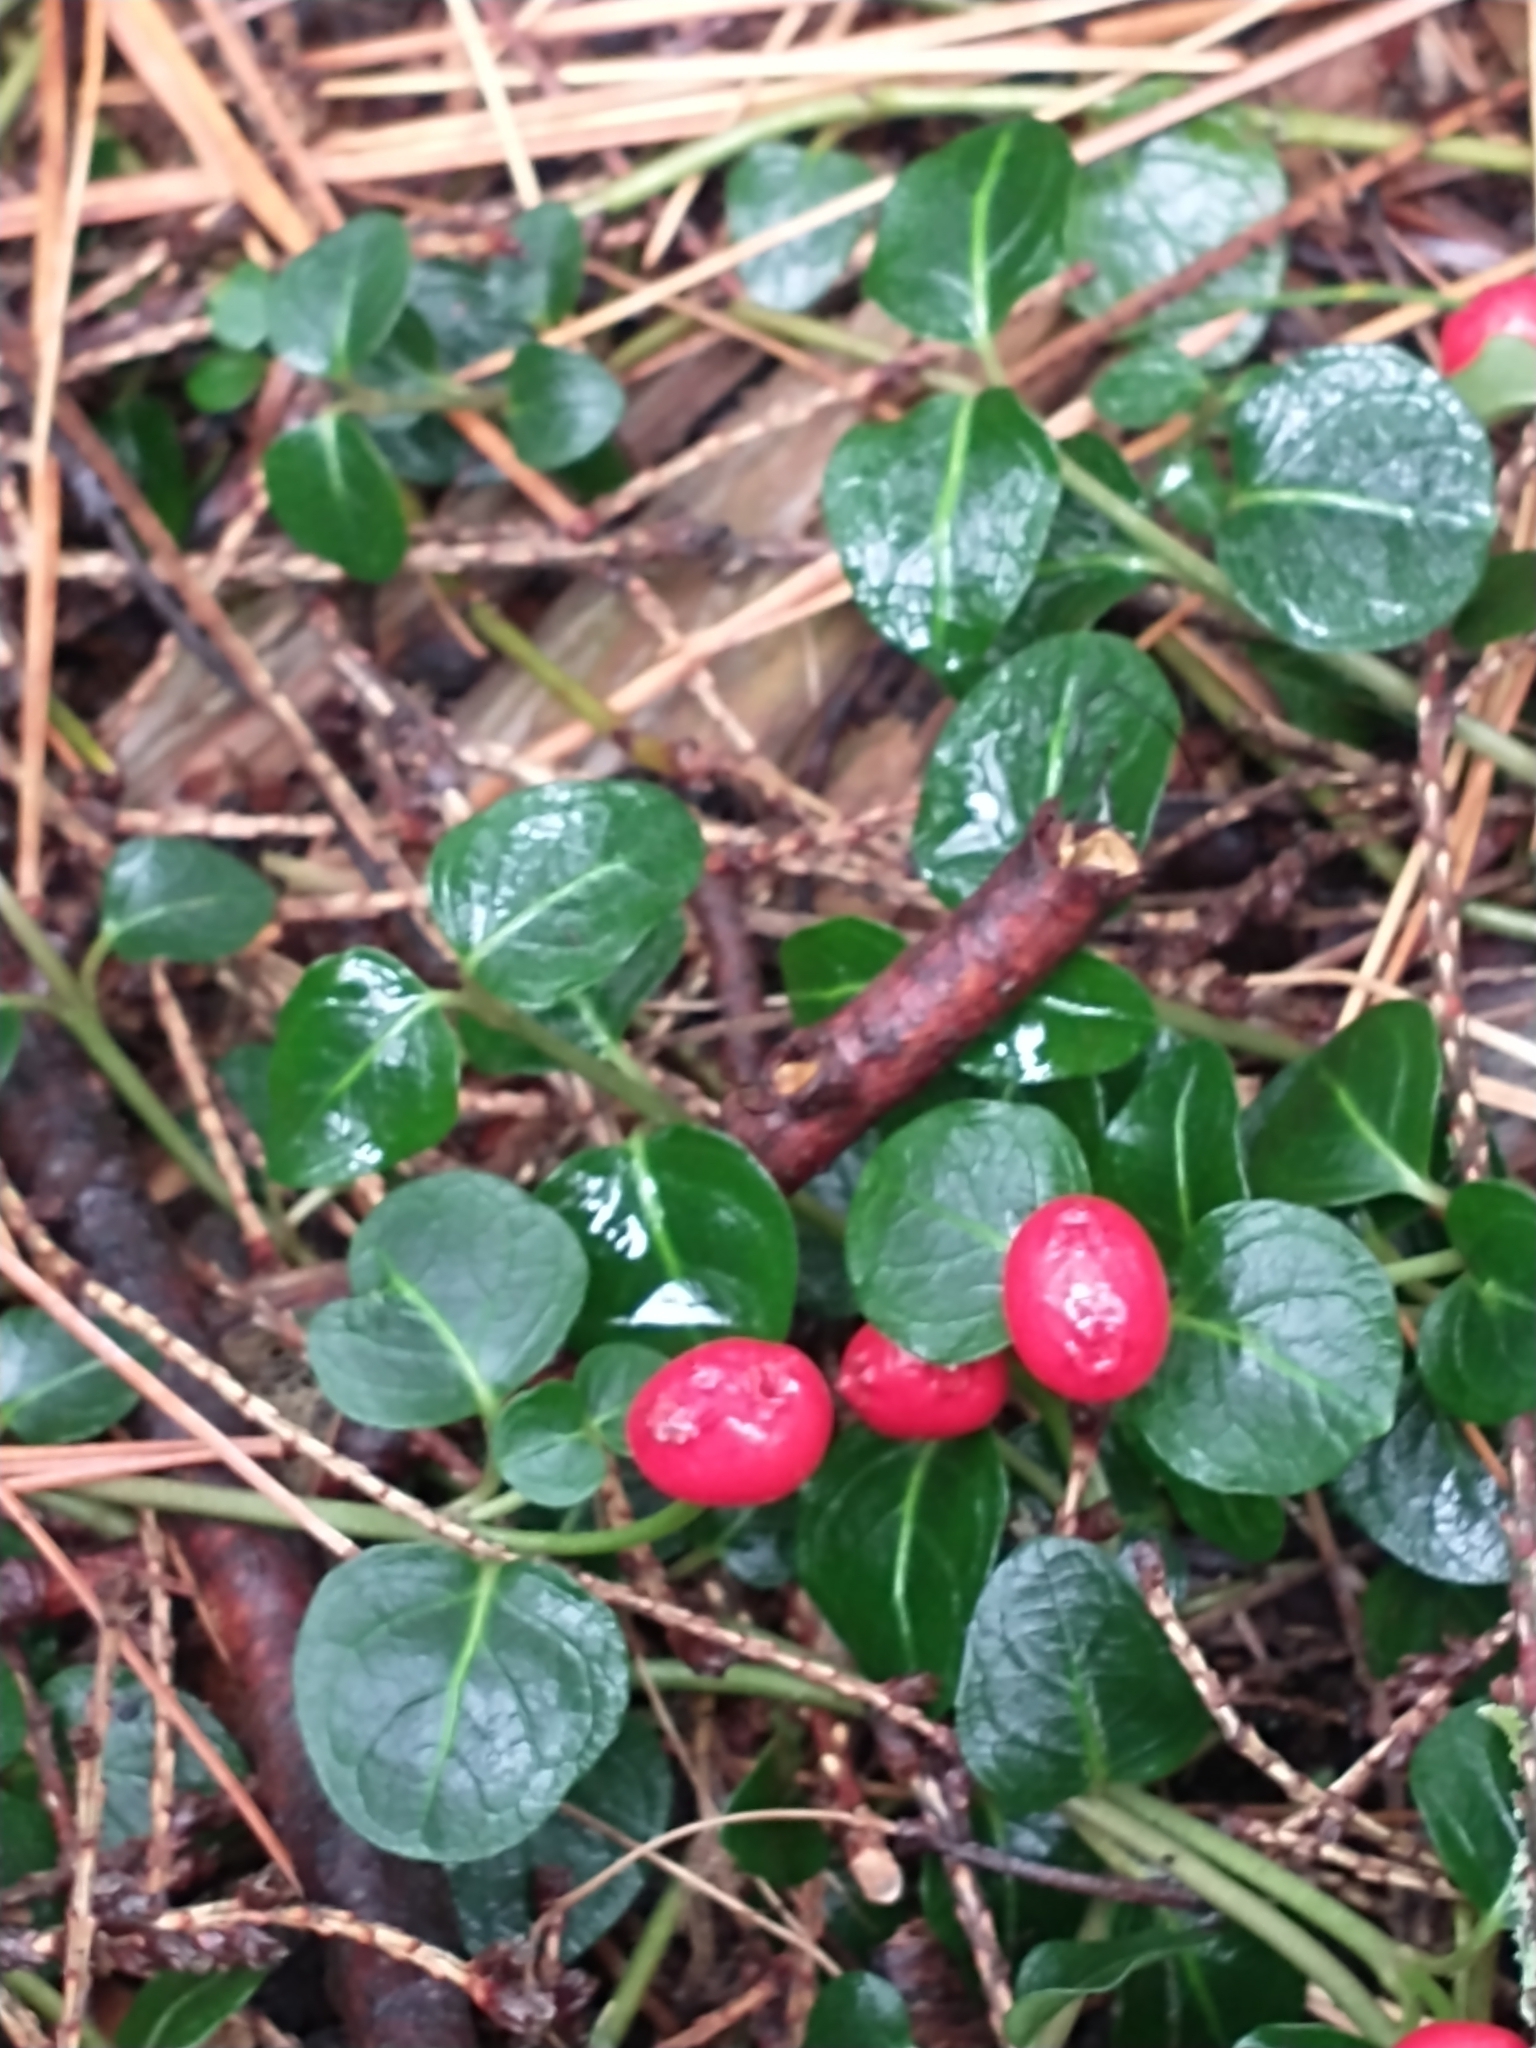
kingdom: Plantae
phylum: Tracheophyta
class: Magnoliopsida
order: Gentianales
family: Rubiaceae
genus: Mitchella
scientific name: Mitchella repens
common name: Partridge-berry
